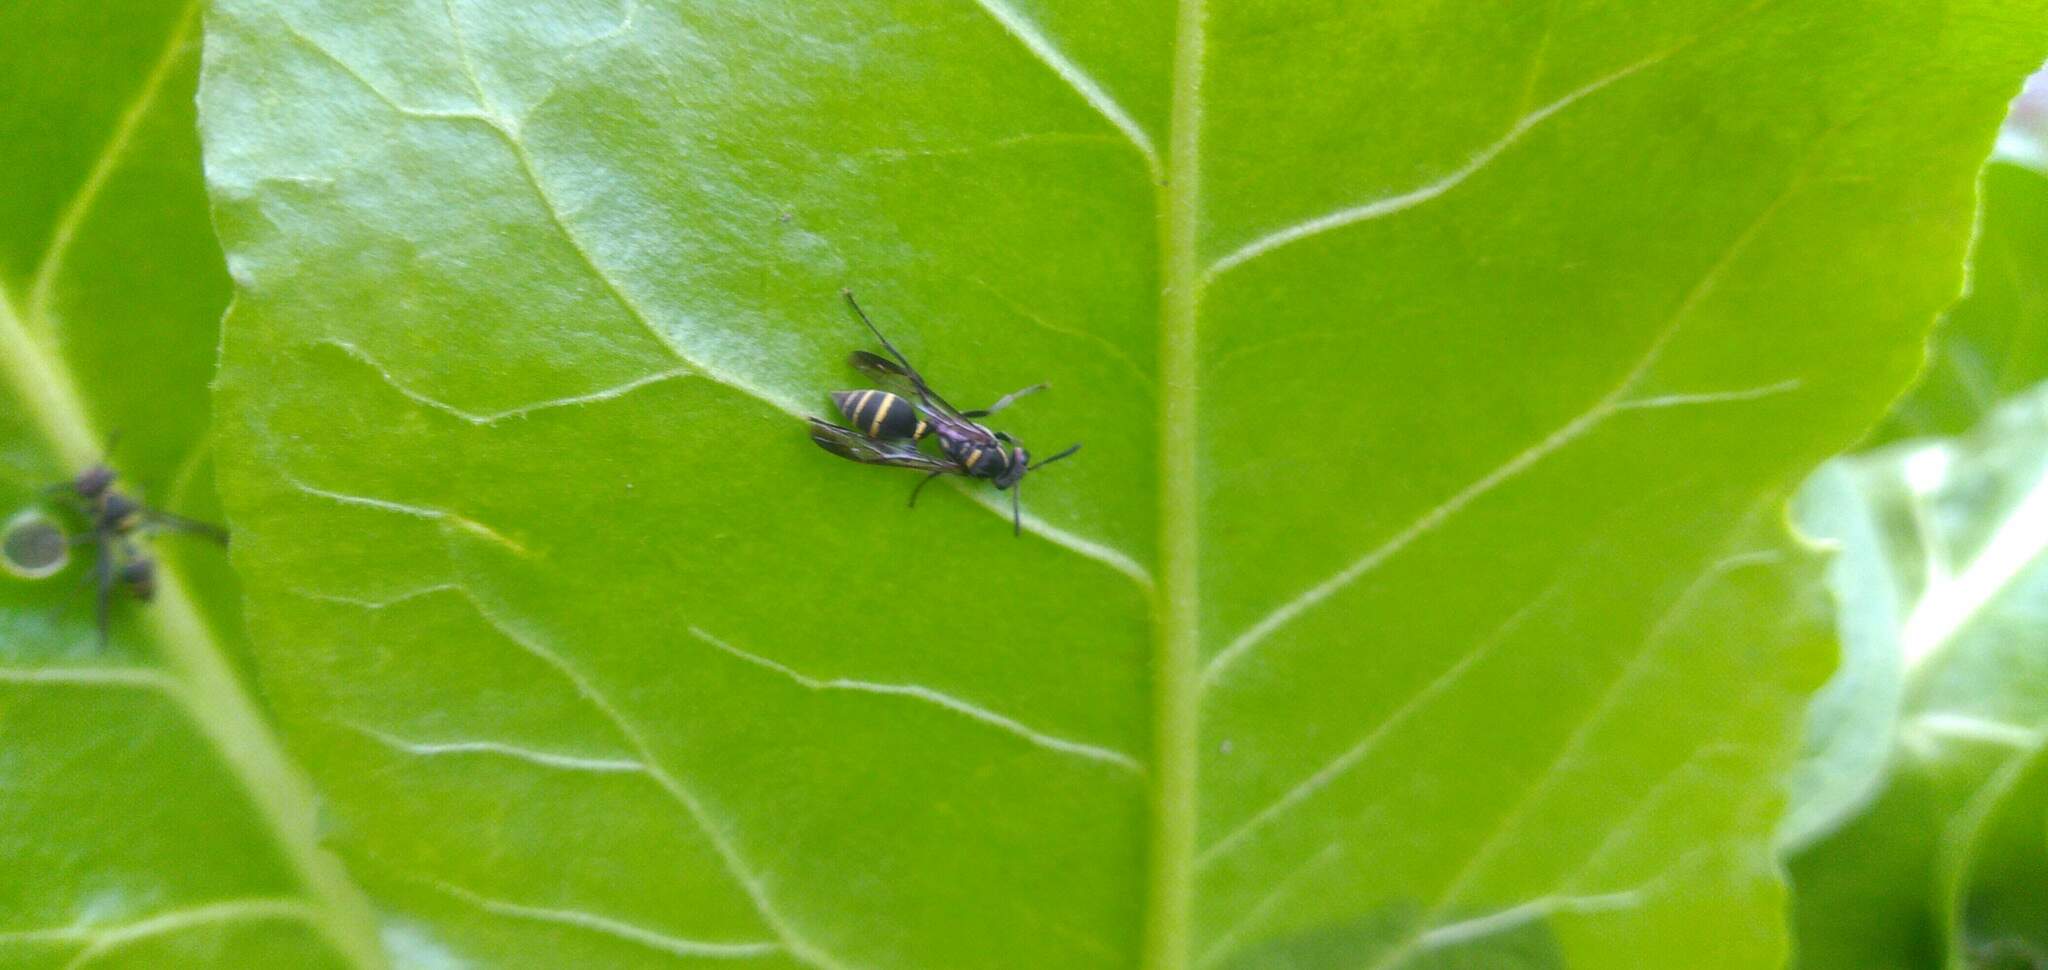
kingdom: Animalia
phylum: Arthropoda
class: Insecta
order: Hymenoptera
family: Eumenidae
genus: Polybia
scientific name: Polybia occidentalis
